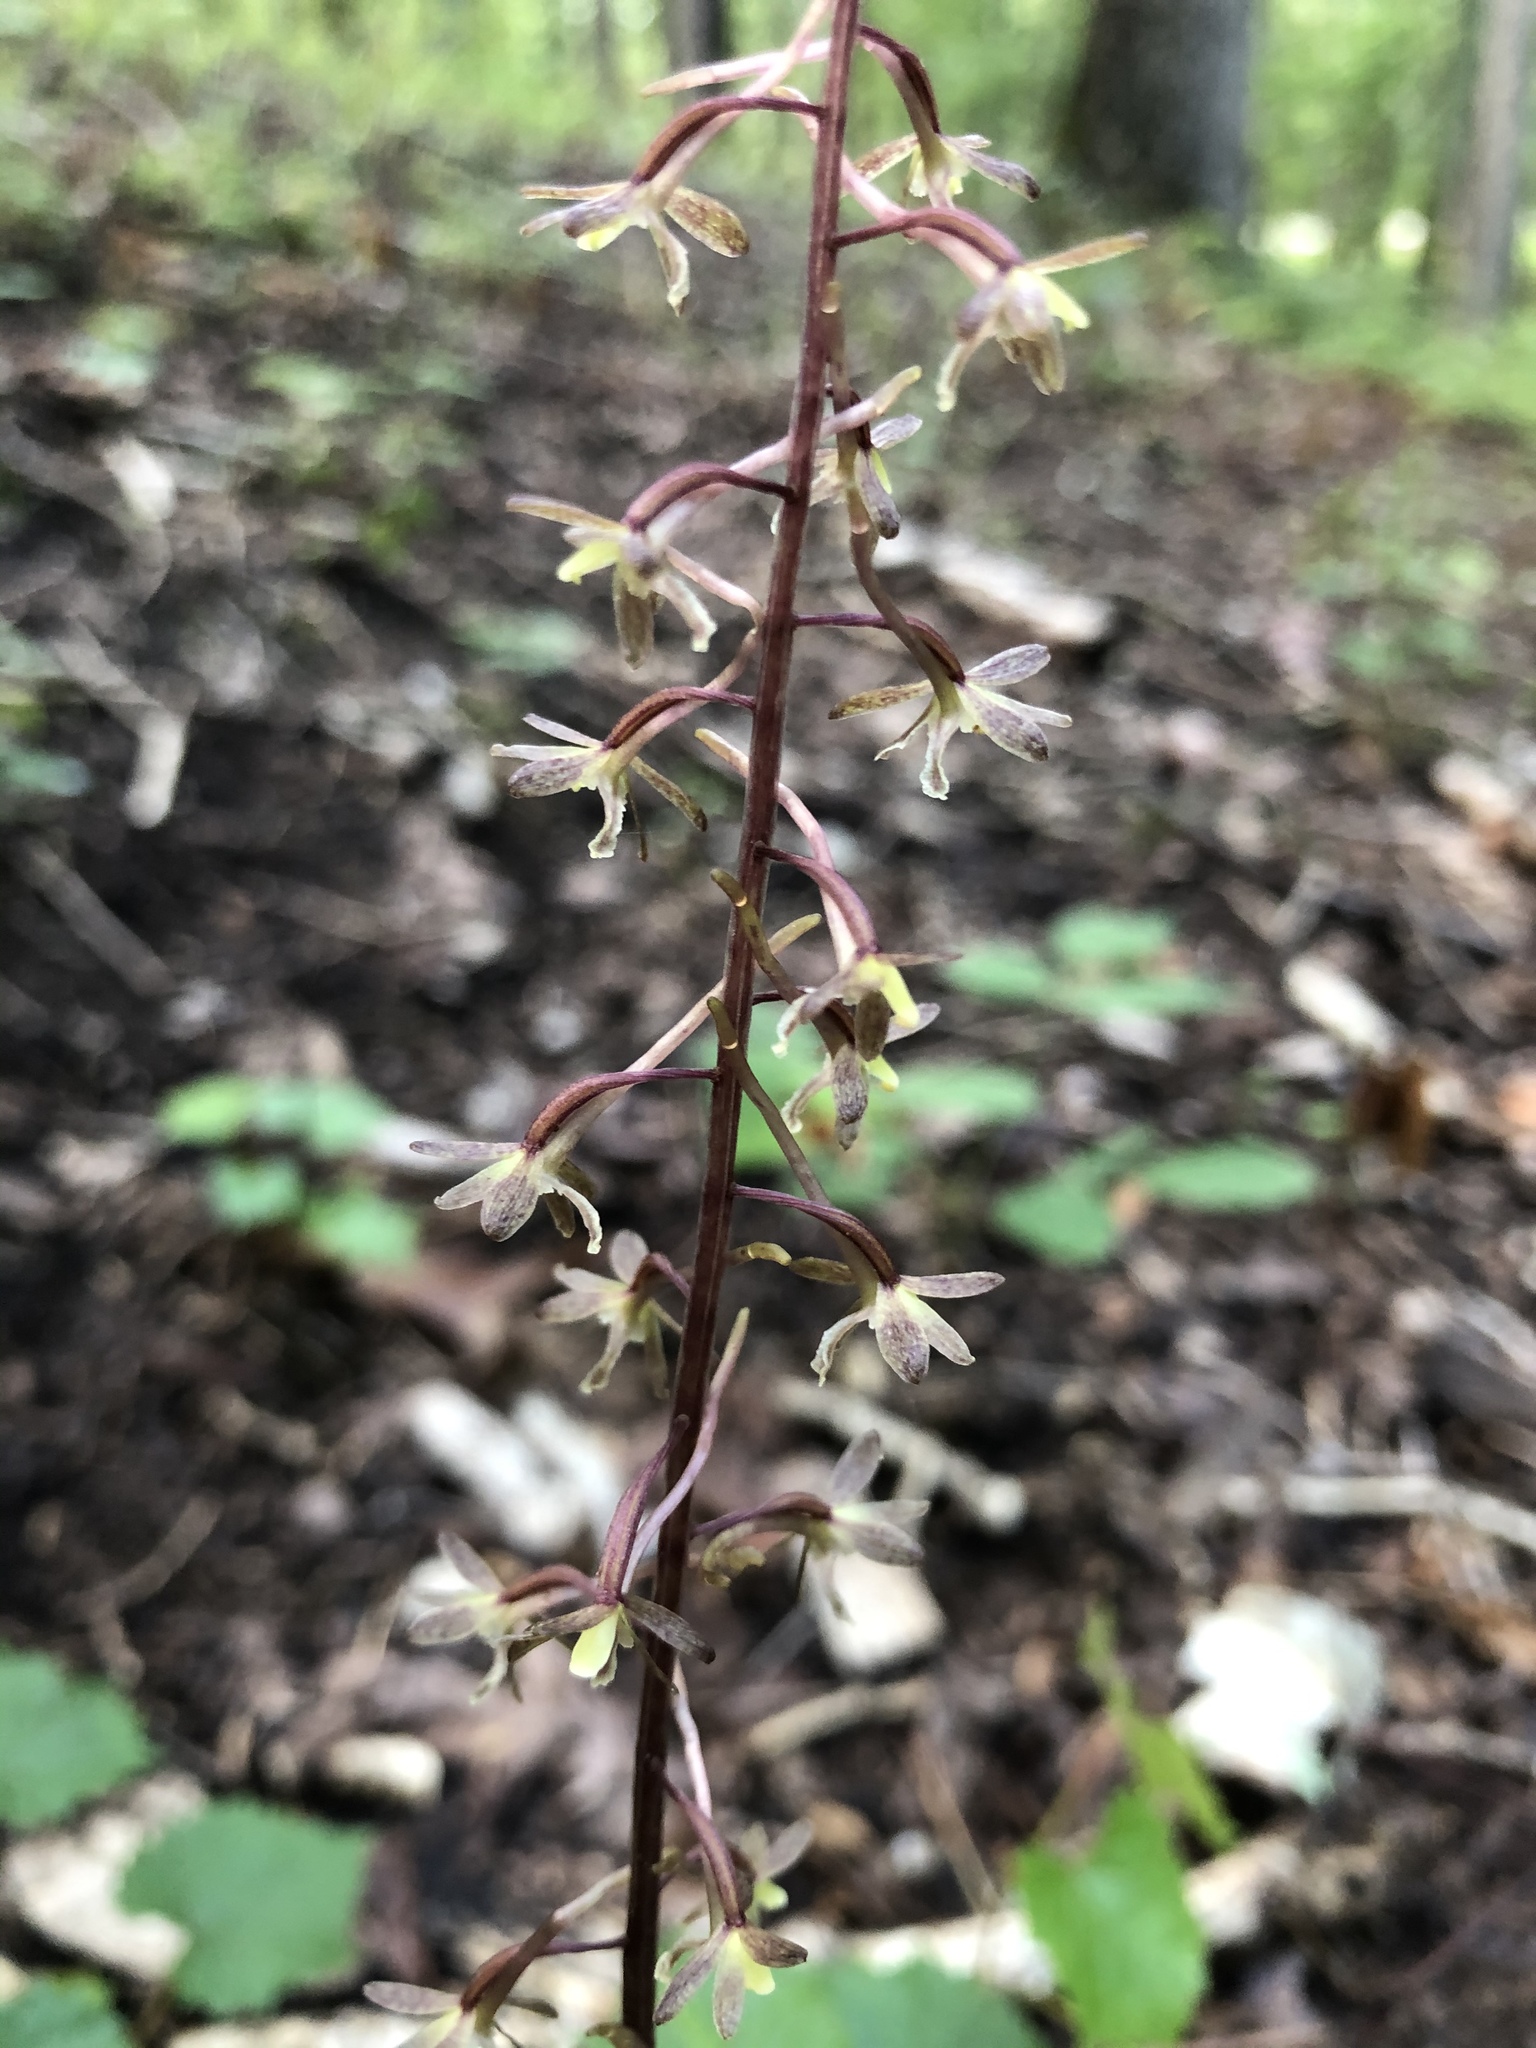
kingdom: Plantae
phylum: Tracheophyta
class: Liliopsida
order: Asparagales
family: Orchidaceae
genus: Tipularia
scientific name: Tipularia discolor
